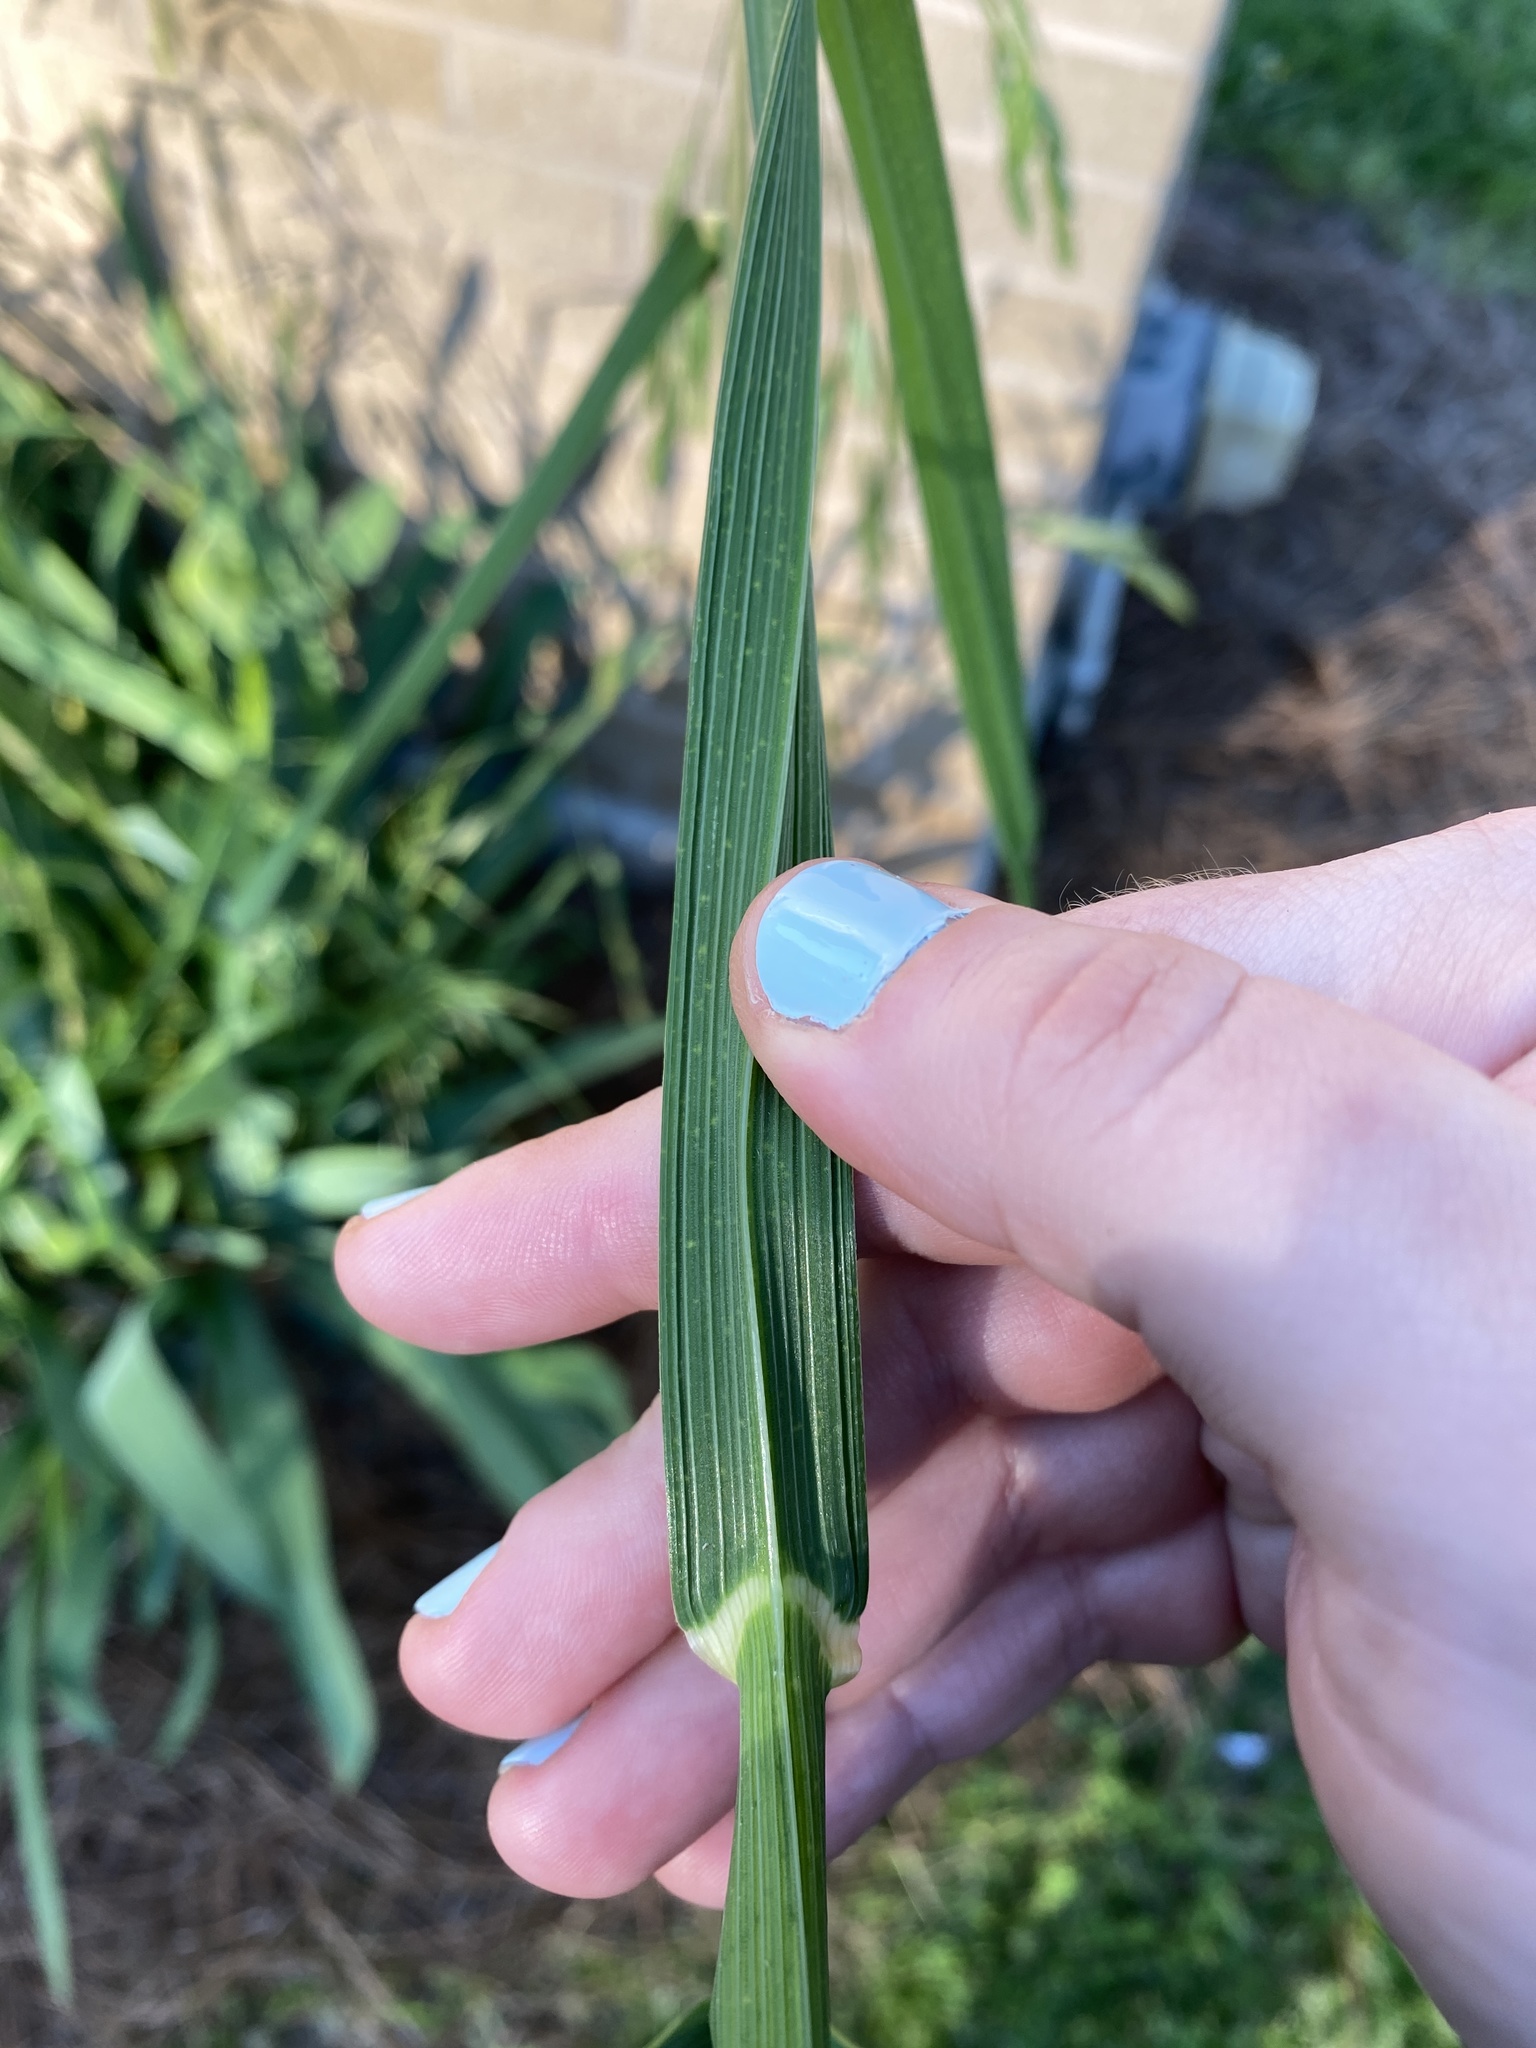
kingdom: Plantae
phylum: Tracheophyta
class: Liliopsida
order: Poales
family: Poaceae
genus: Bromus
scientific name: Bromus catharticus
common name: Rescuegrass
